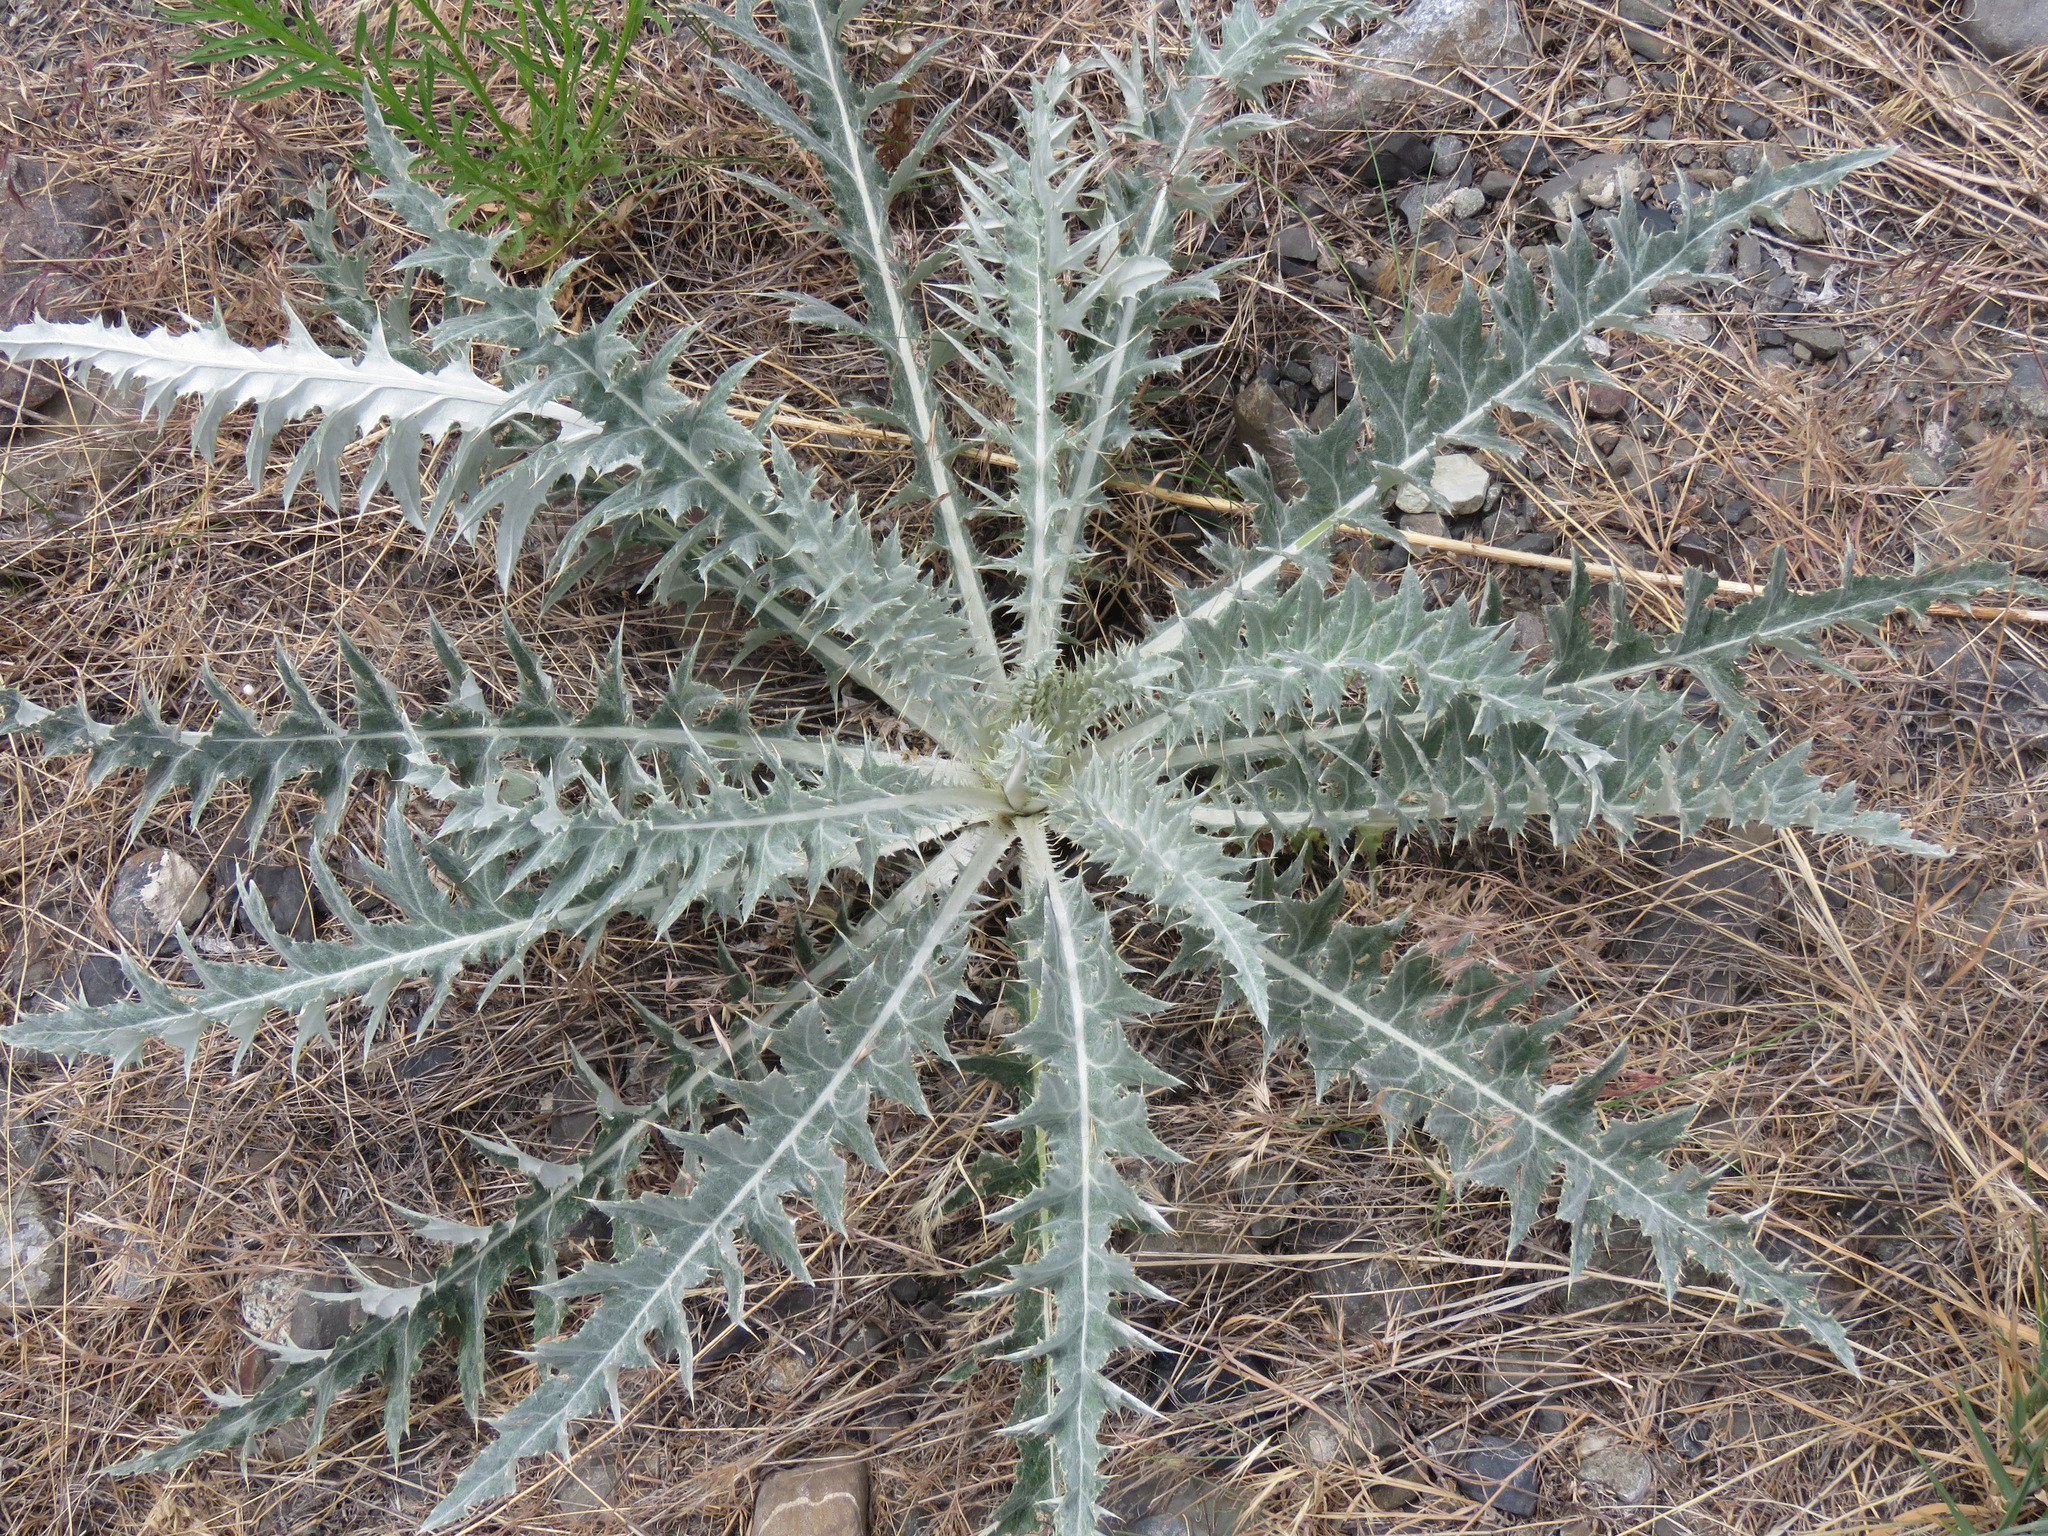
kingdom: Plantae
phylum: Tracheophyta
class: Magnoliopsida
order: Asterales
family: Asteraceae
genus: Cirsium
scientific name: Cirsium undulatum
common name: Pasture thistle
